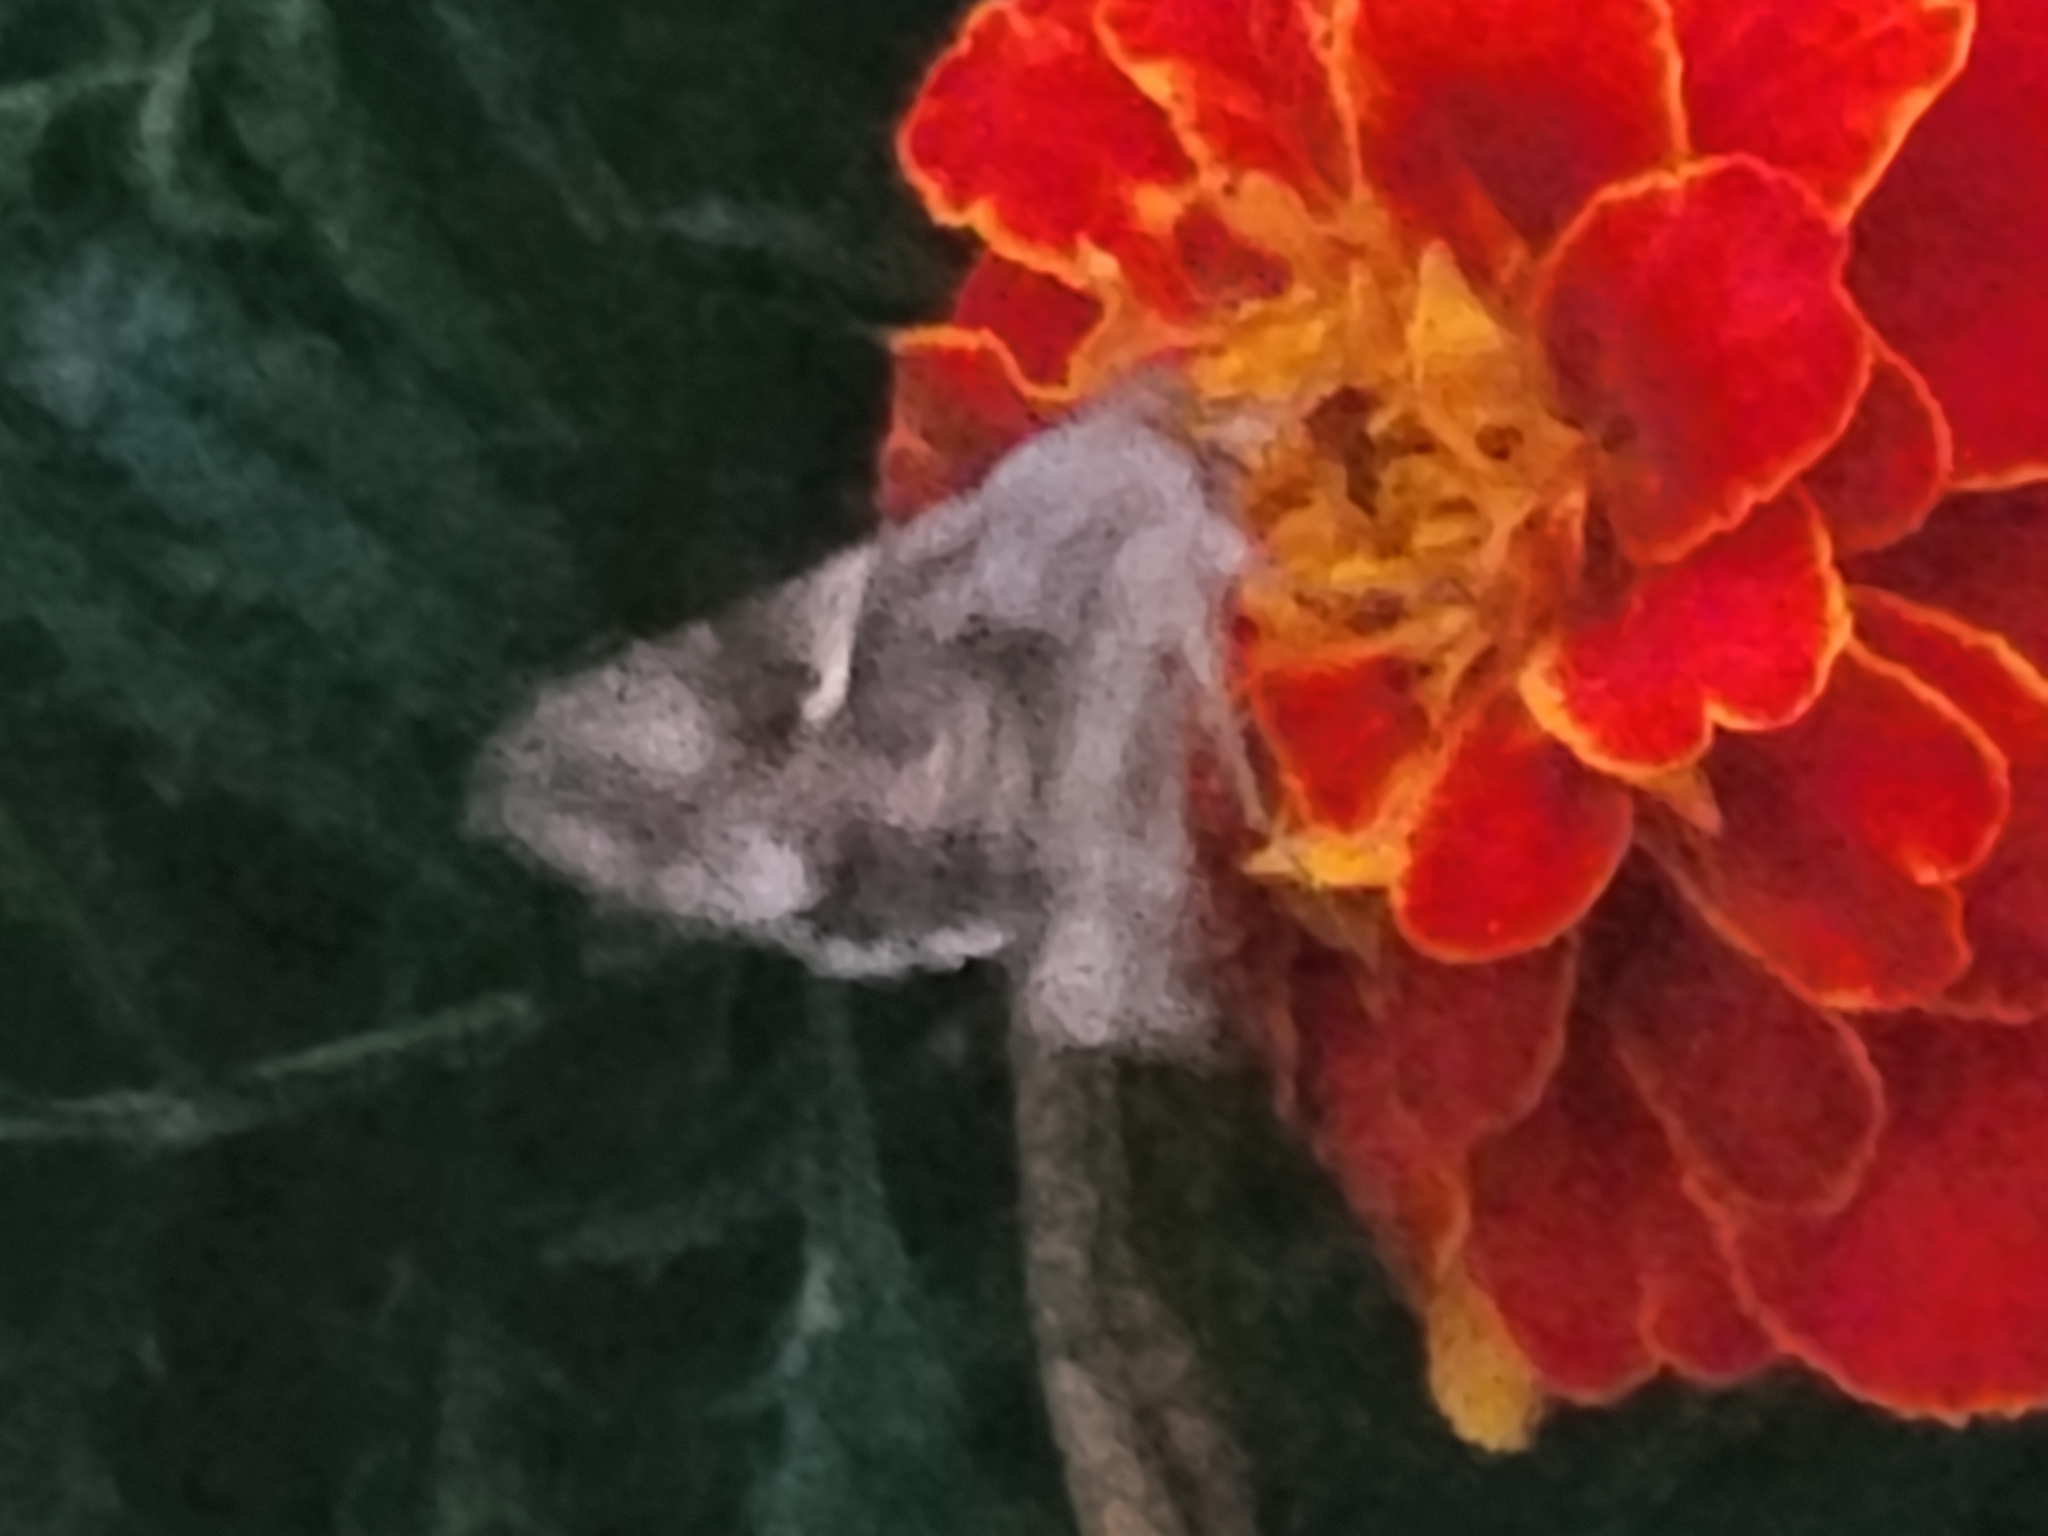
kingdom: Animalia
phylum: Arthropoda
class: Insecta
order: Lepidoptera
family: Noctuidae
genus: Autographa
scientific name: Autographa gamma
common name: Silver y
